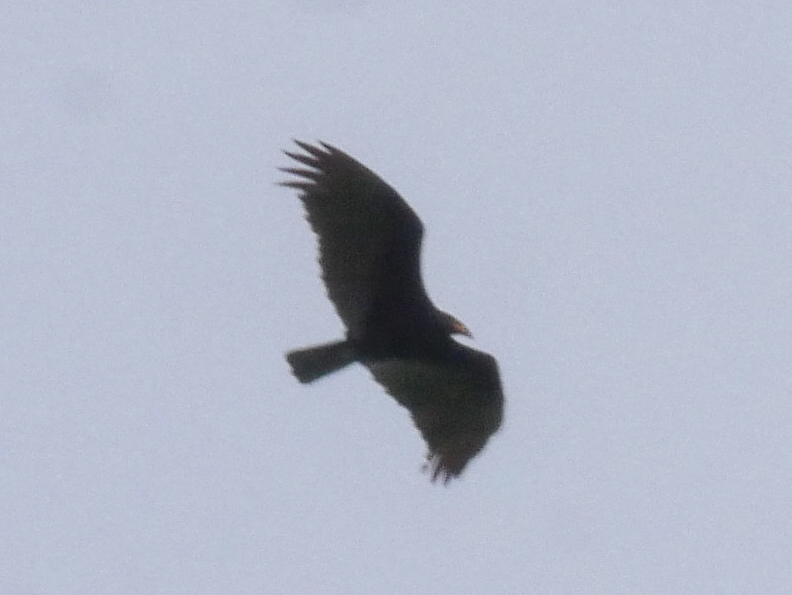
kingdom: Animalia
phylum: Chordata
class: Aves
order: Accipitriformes
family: Cathartidae
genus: Cathartes
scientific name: Cathartes burrovianus
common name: Lesser yellow-headed vulture
